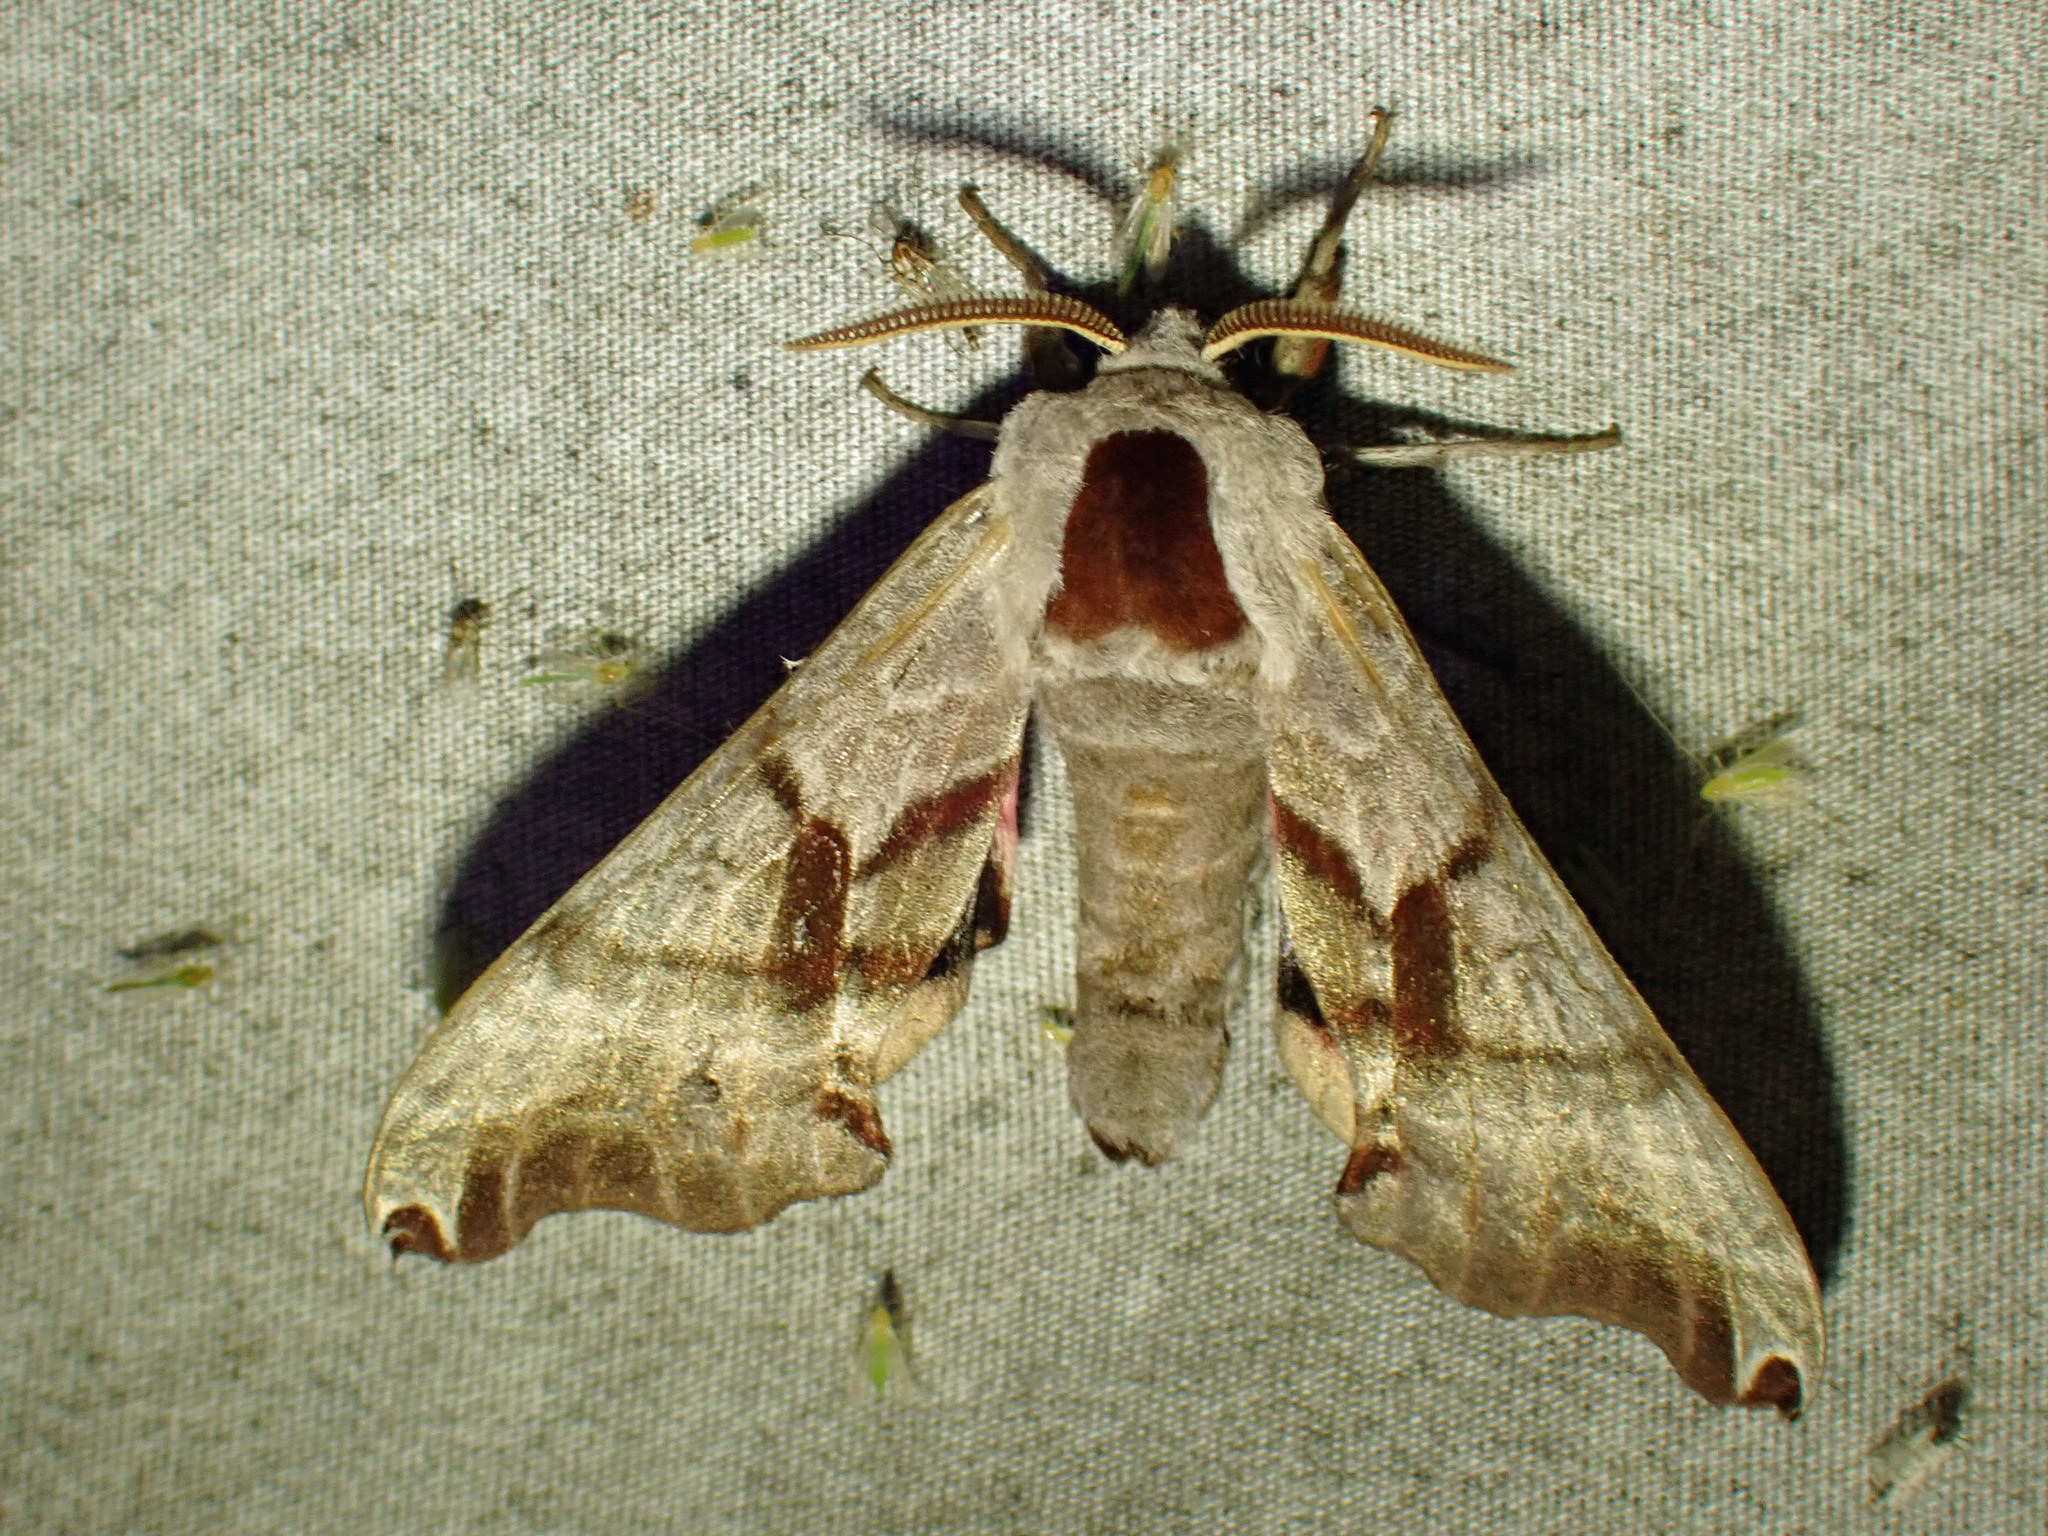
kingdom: Animalia
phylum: Arthropoda
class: Insecta
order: Lepidoptera
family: Sphingidae
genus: Smerinthus
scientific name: Smerinthus jamaicensis
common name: Twin spotted sphinx
